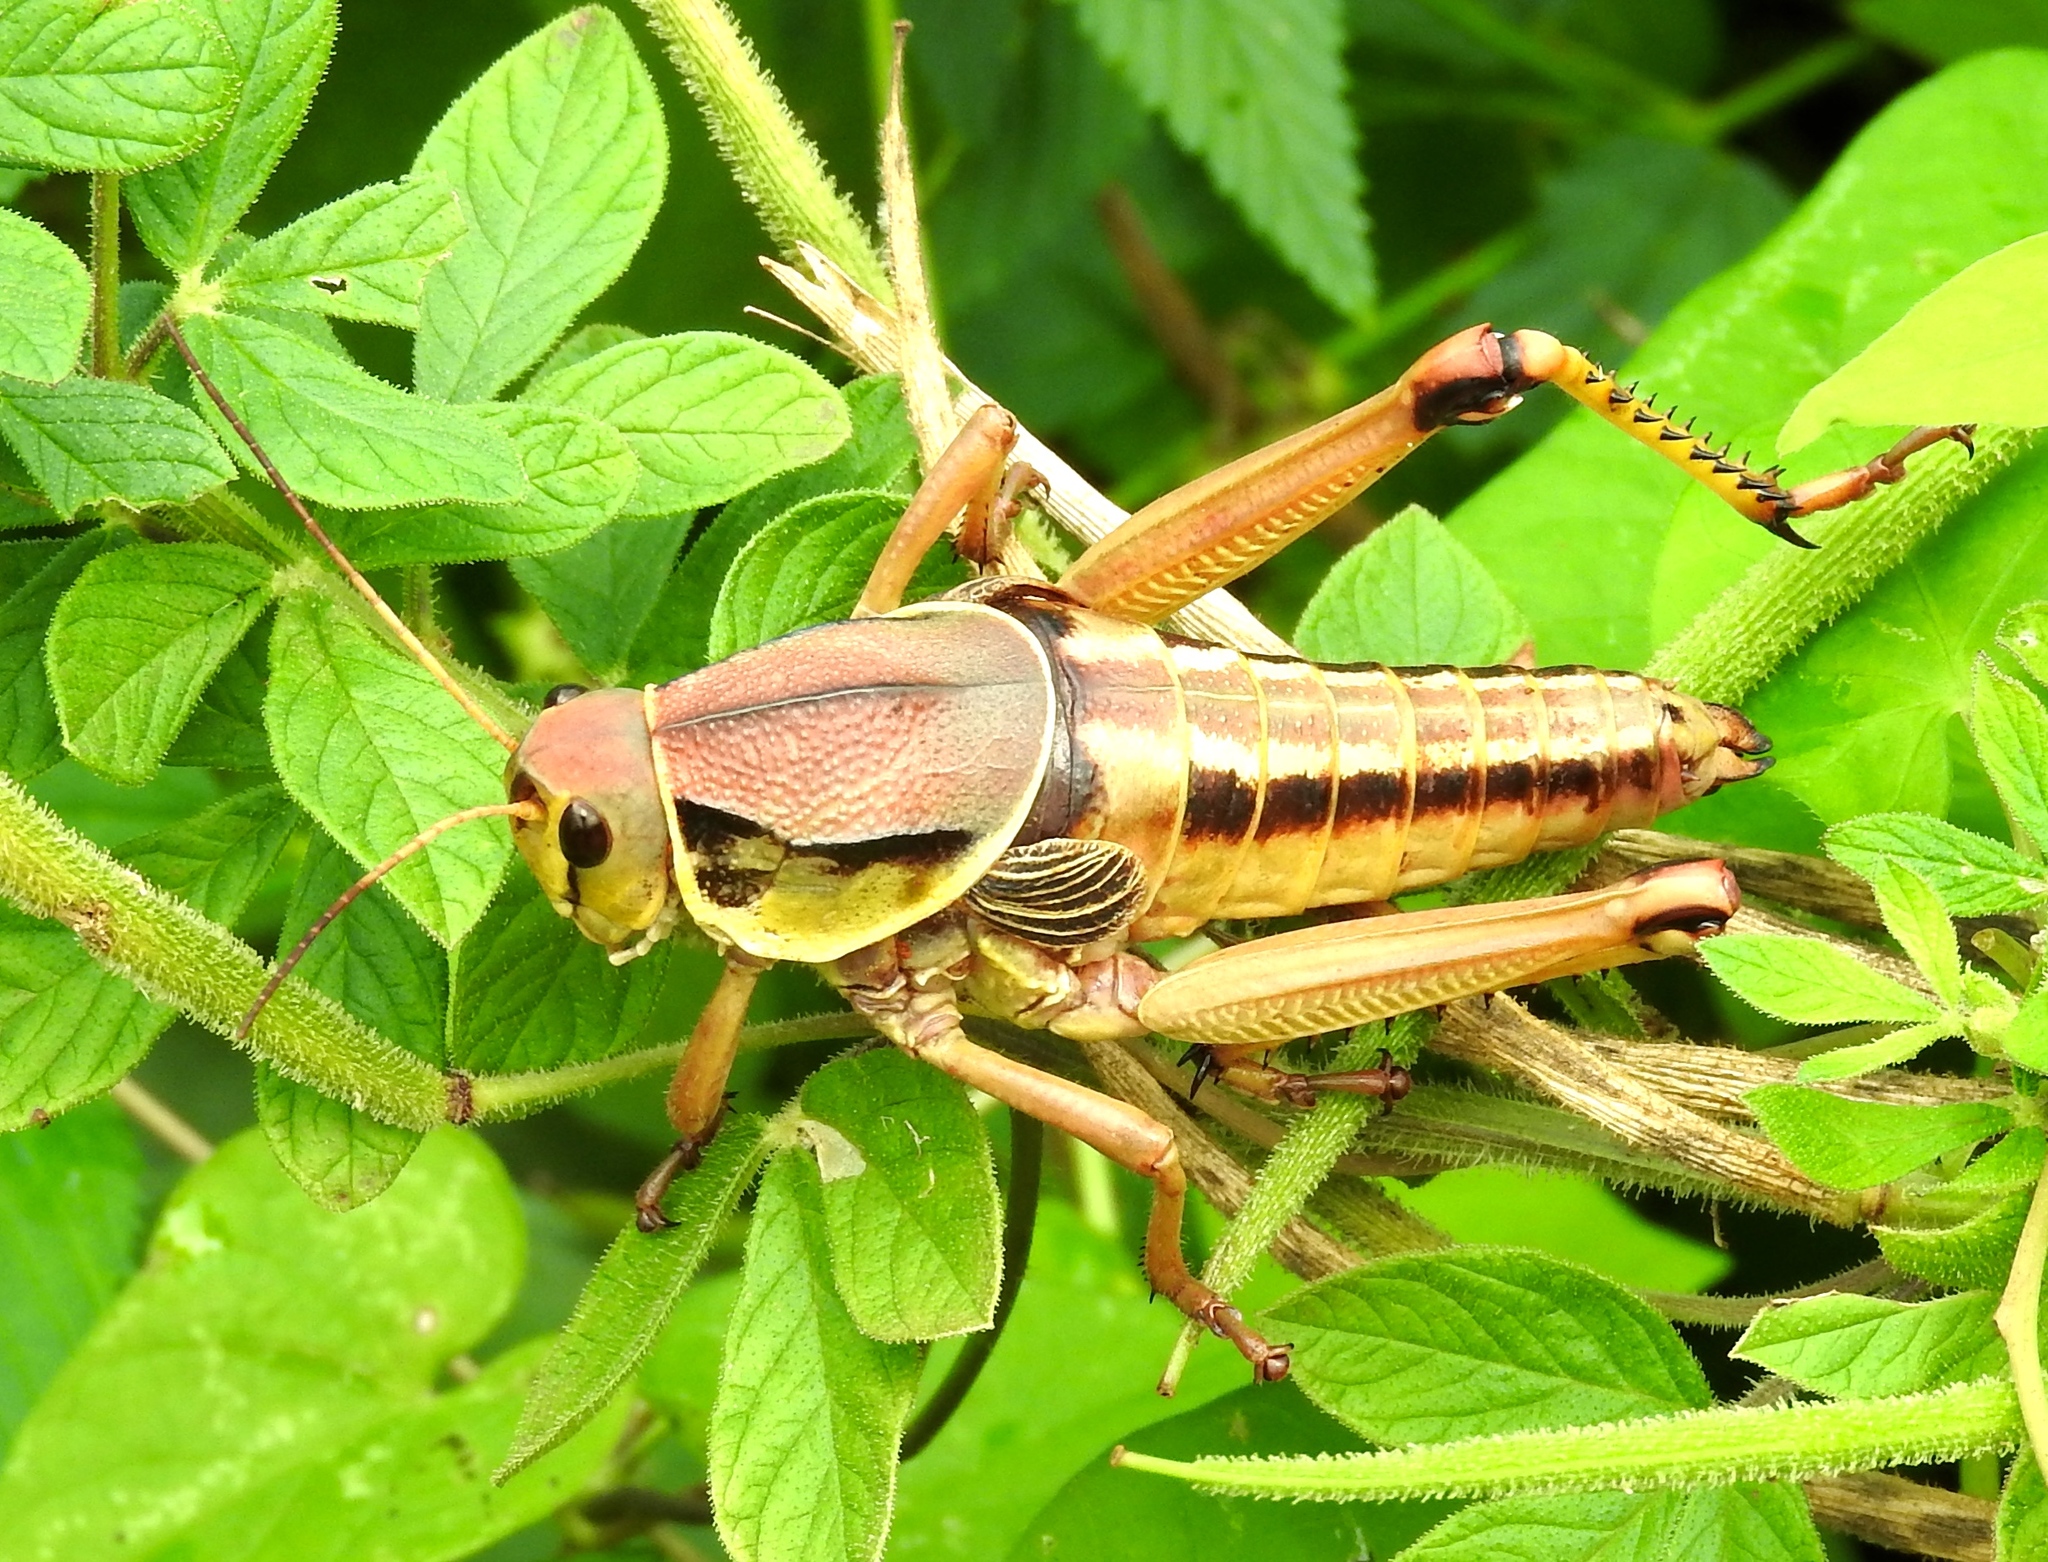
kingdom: Animalia
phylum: Arthropoda
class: Insecta
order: Orthoptera
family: Romaleidae
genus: Brachystola
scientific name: Brachystola behrensii
